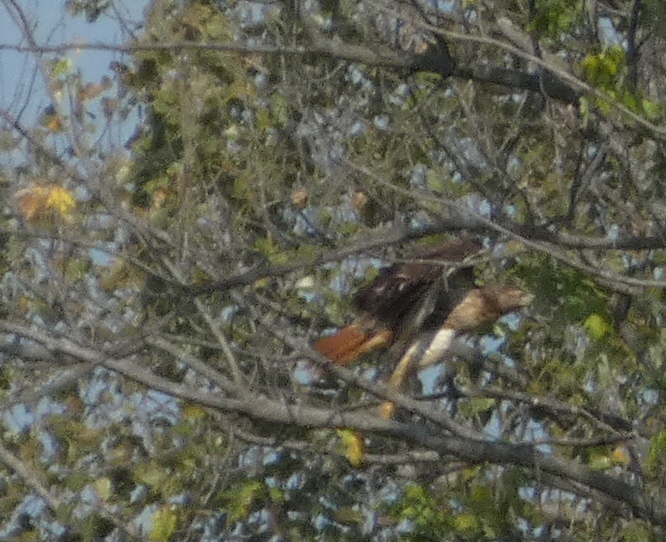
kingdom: Animalia
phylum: Chordata
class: Aves
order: Accipitriformes
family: Accipitridae
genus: Buteo
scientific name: Buteo jamaicensis
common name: Red-tailed hawk
